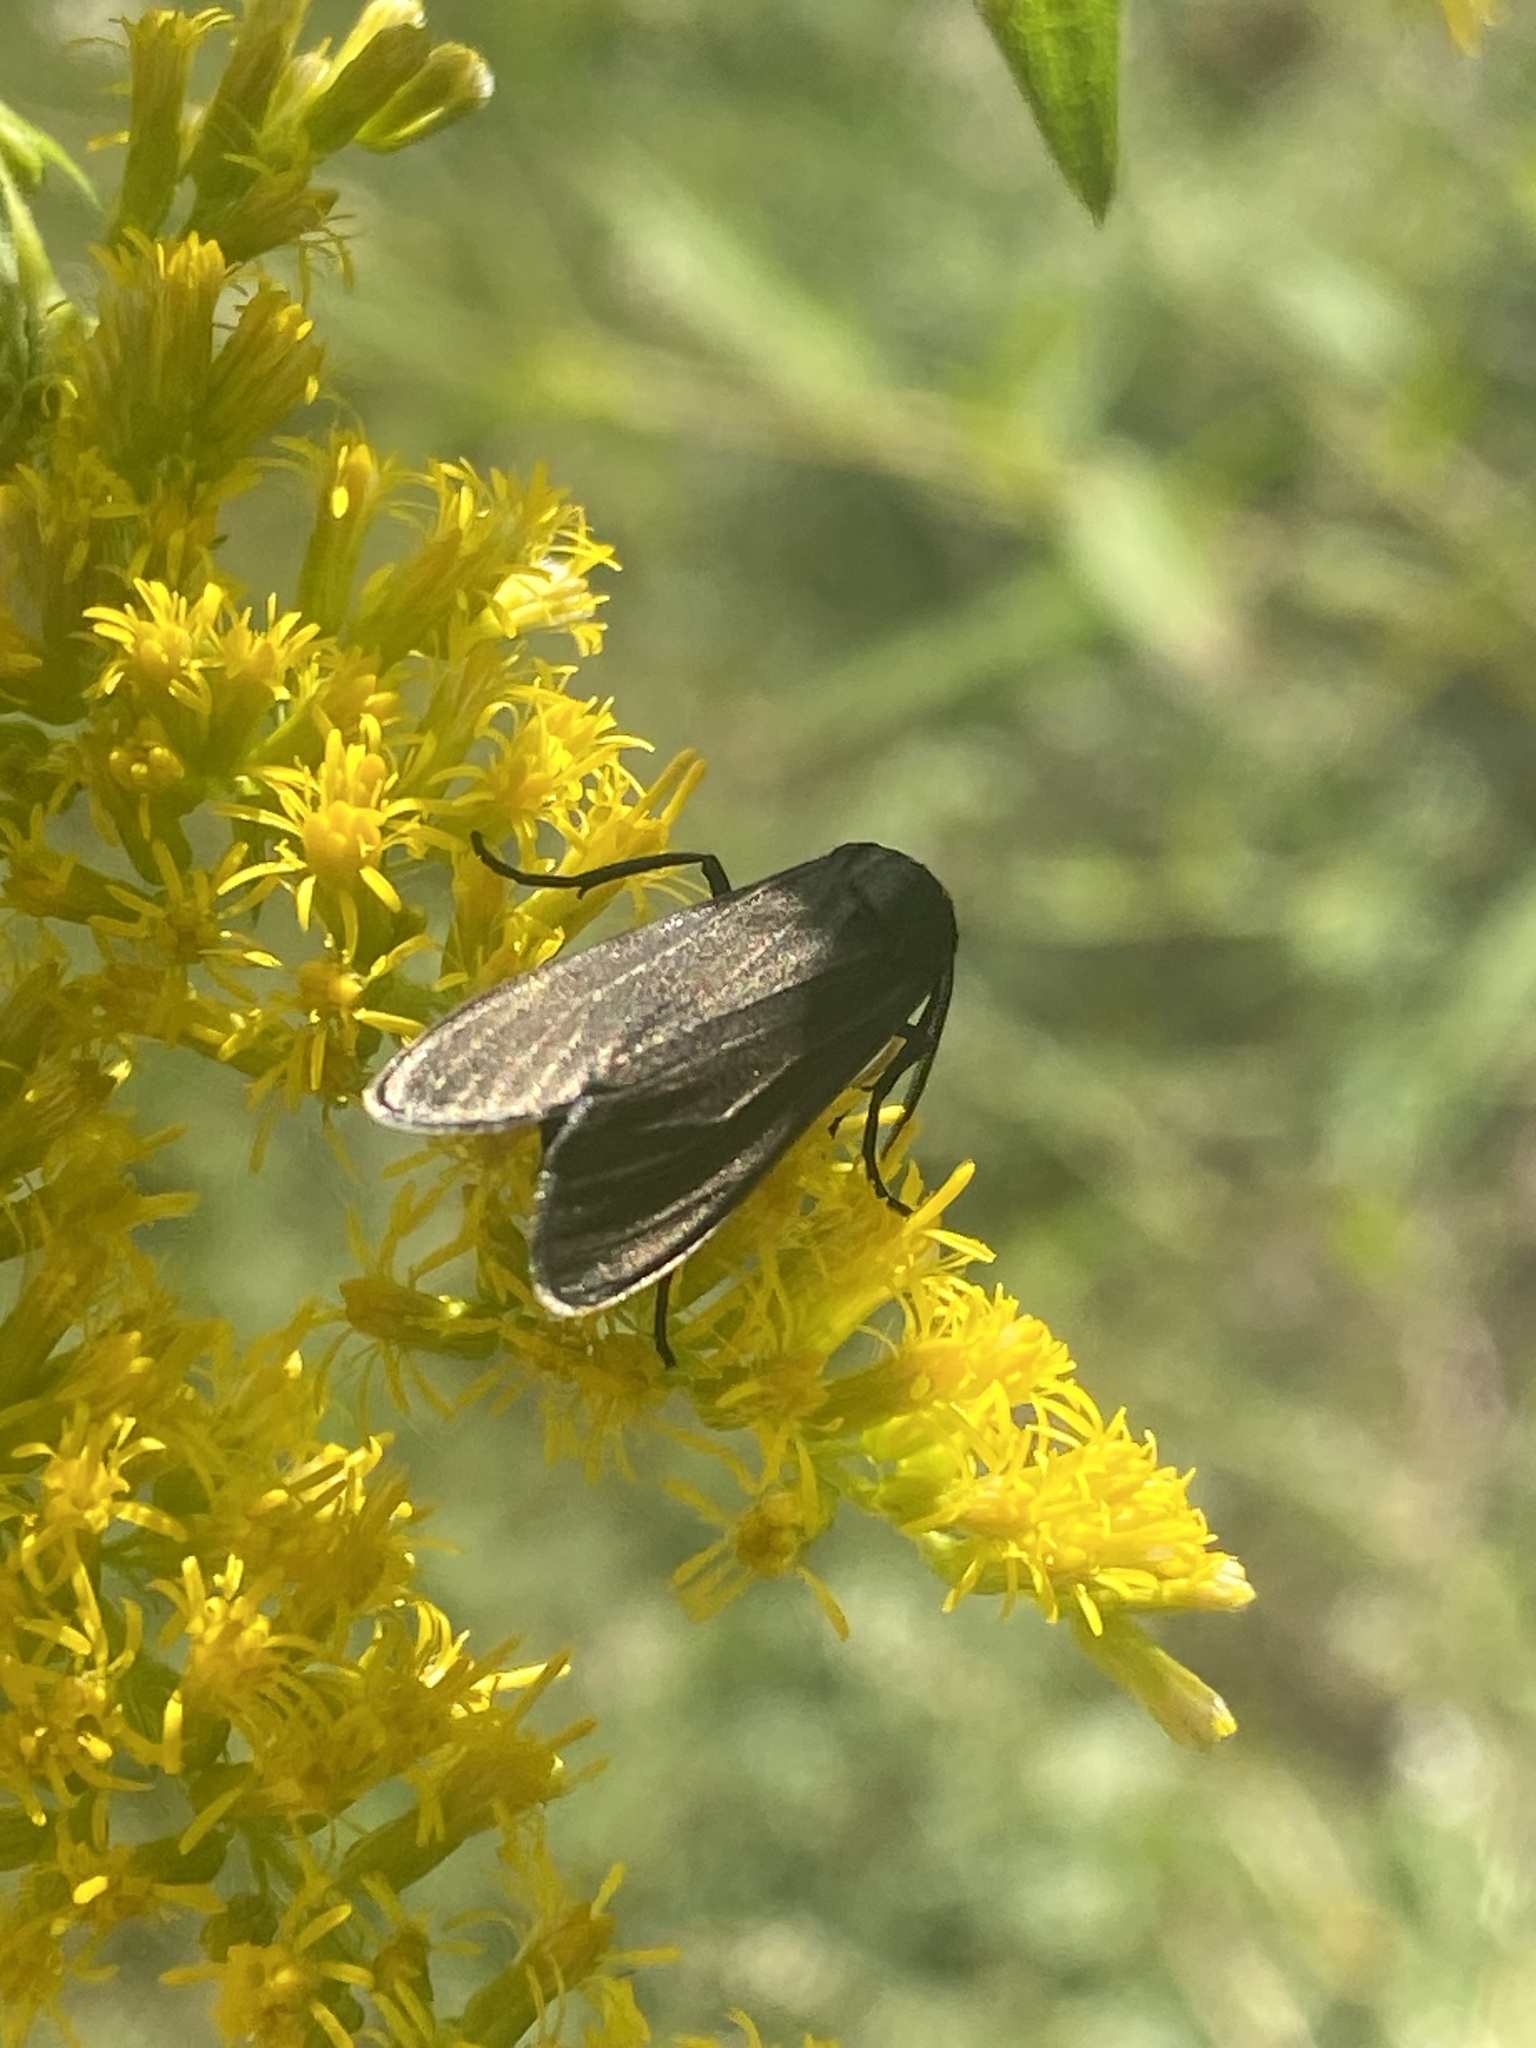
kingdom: Animalia
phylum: Arthropoda
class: Insecta
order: Lepidoptera
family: Erebidae
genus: Cisseps
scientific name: Cisseps fulvicollis
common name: Yellow-collared scape moth
